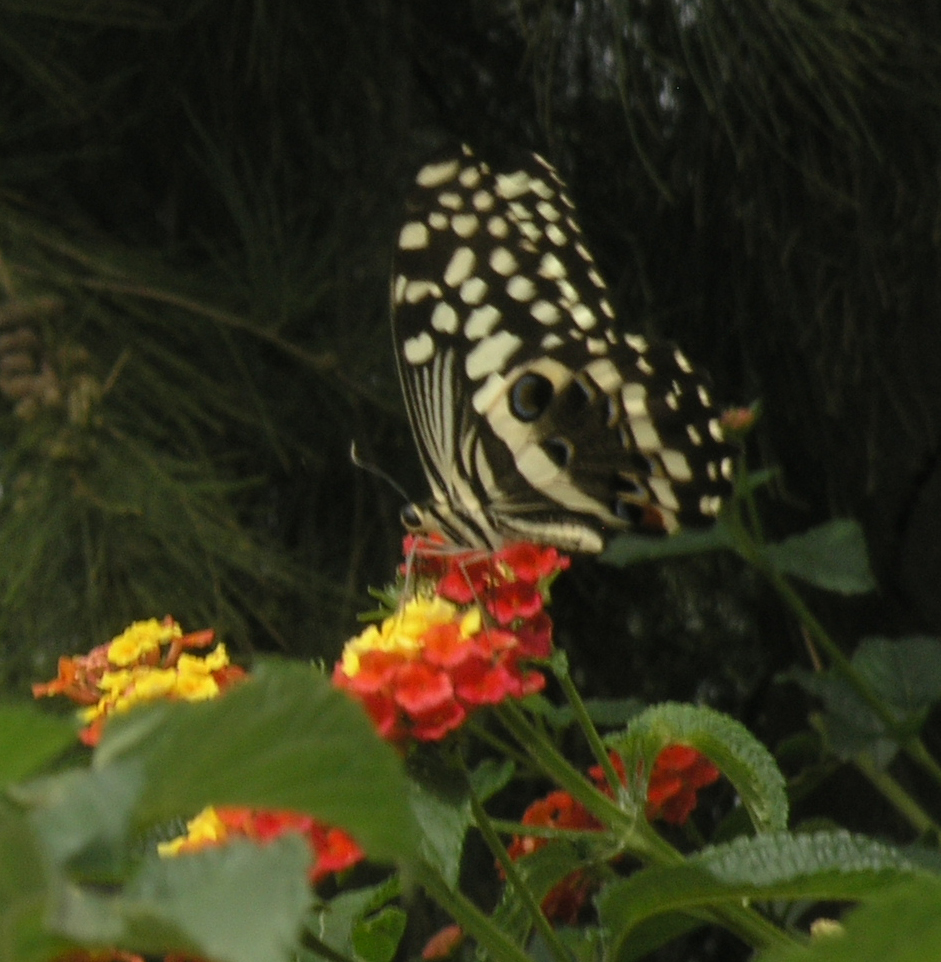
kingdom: Animalia
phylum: Arthropoda
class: Insecta
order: Lepidoptera
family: Papilionidae
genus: Papilio
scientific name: Papilio demodocus
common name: Christmas butterfly
